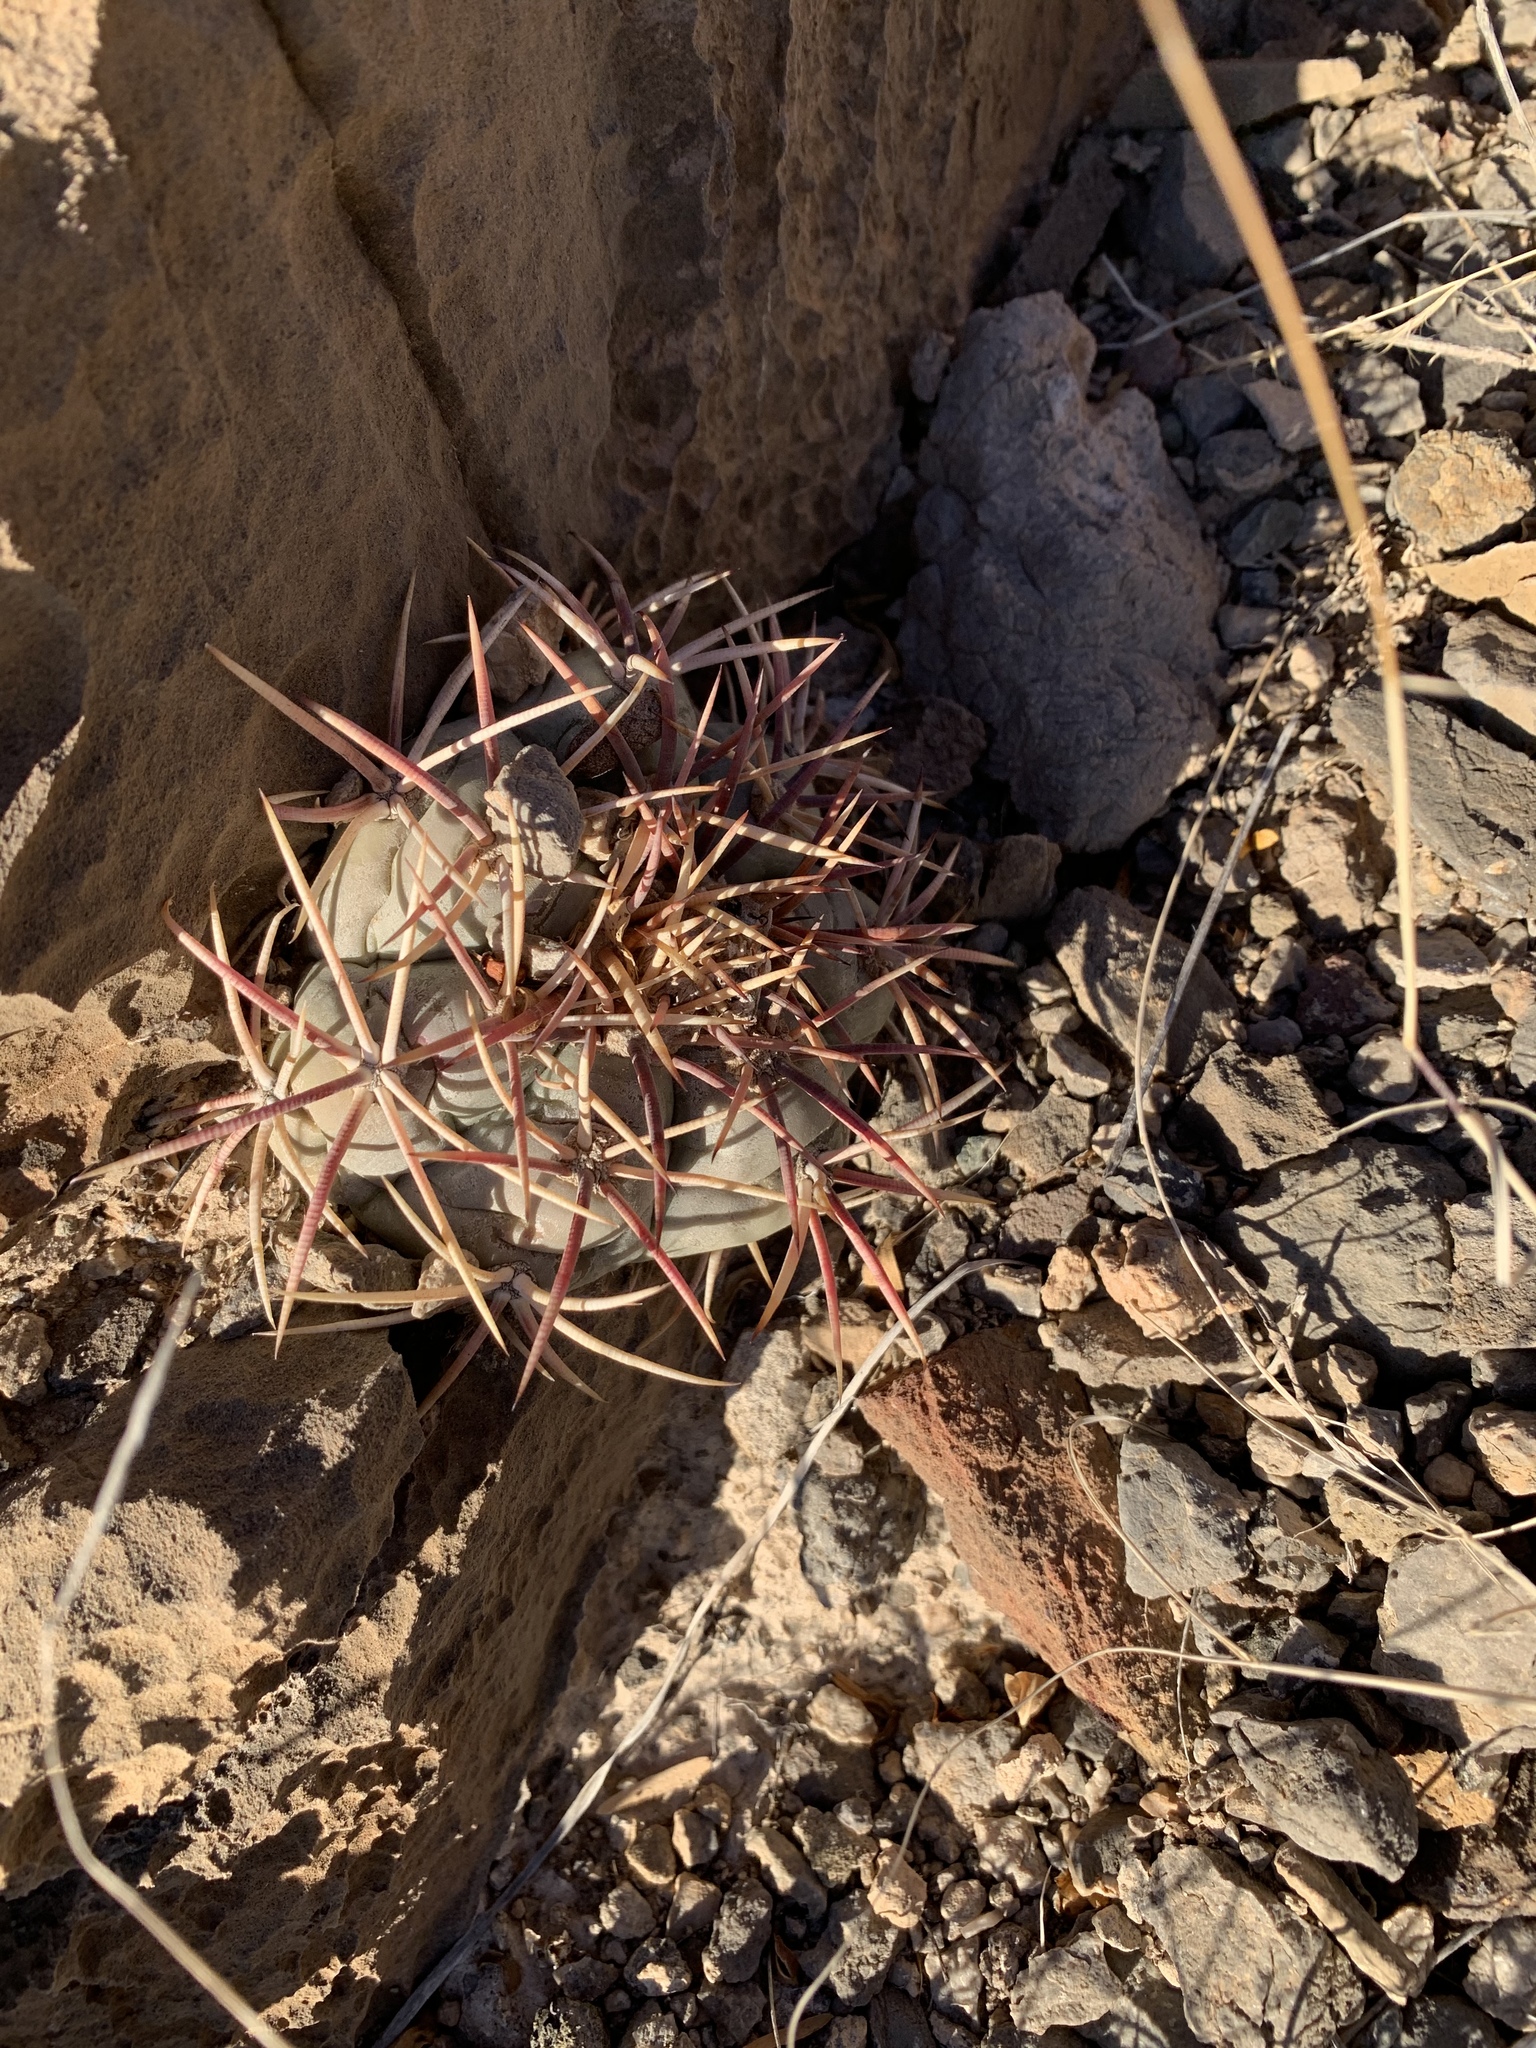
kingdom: Plantae
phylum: Tracheophyta
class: Magnoliopsida
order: Caryophyllales
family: Cactaceae
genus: Echinocactus
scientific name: Echinocactus horizonthalonius
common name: Devilshead
